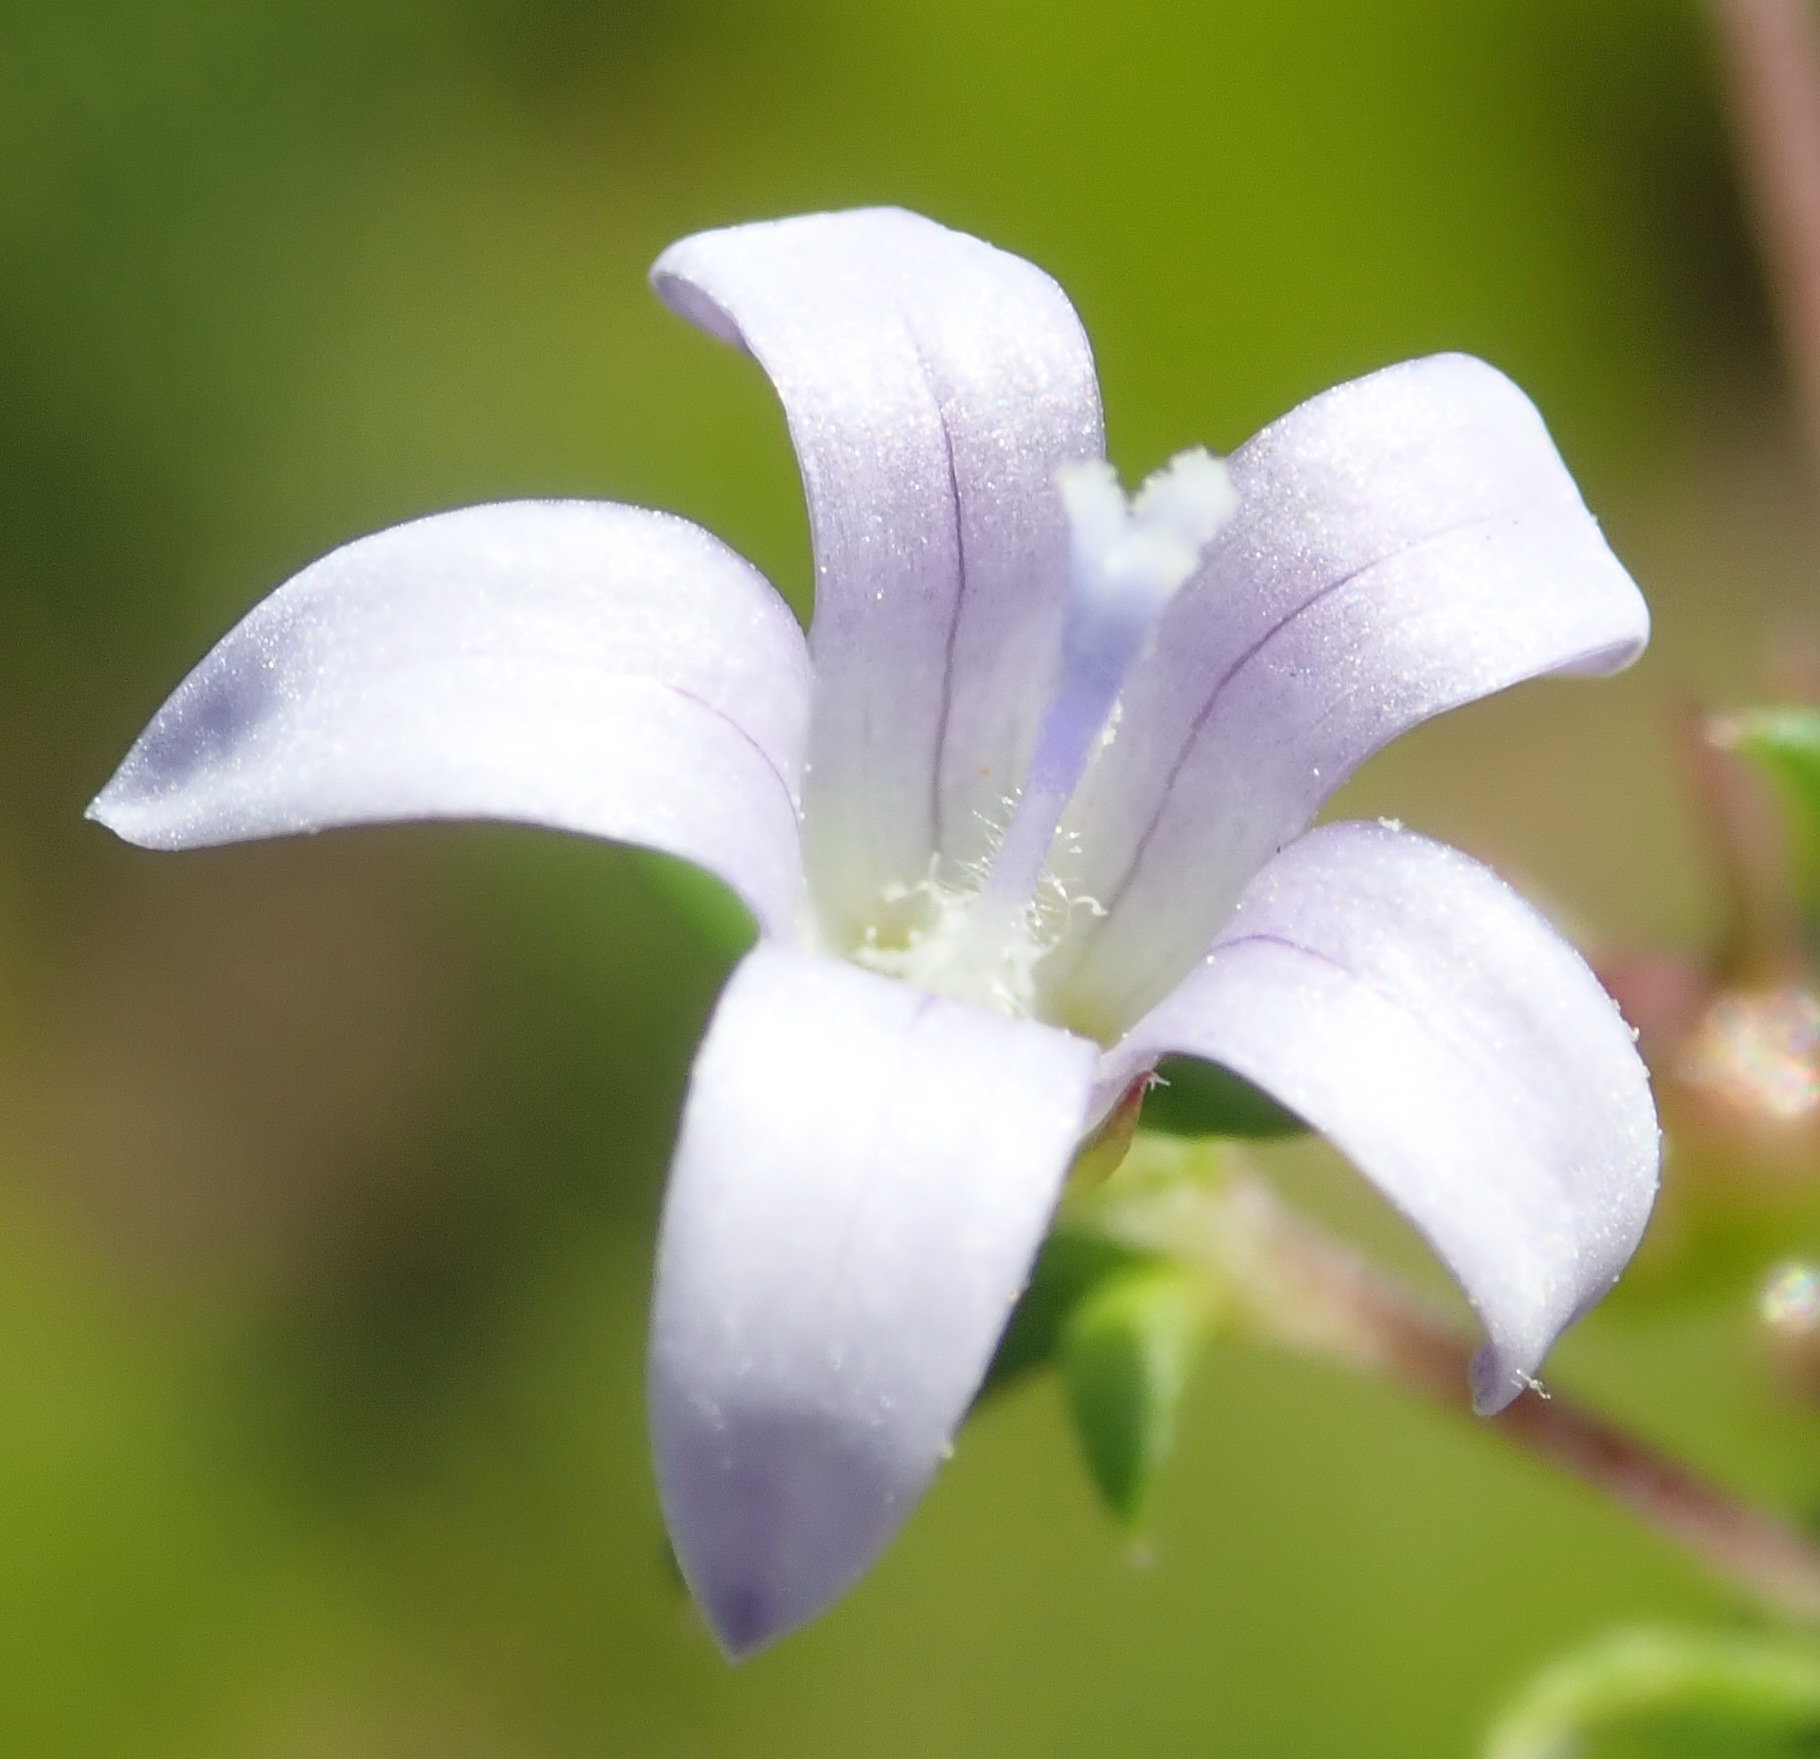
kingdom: Plantae
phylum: Tracheophyta
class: Magnoliopsida
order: Asterales
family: Campanulaceae
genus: Wahlenbergia
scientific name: Wahlenbergia thunbergii
